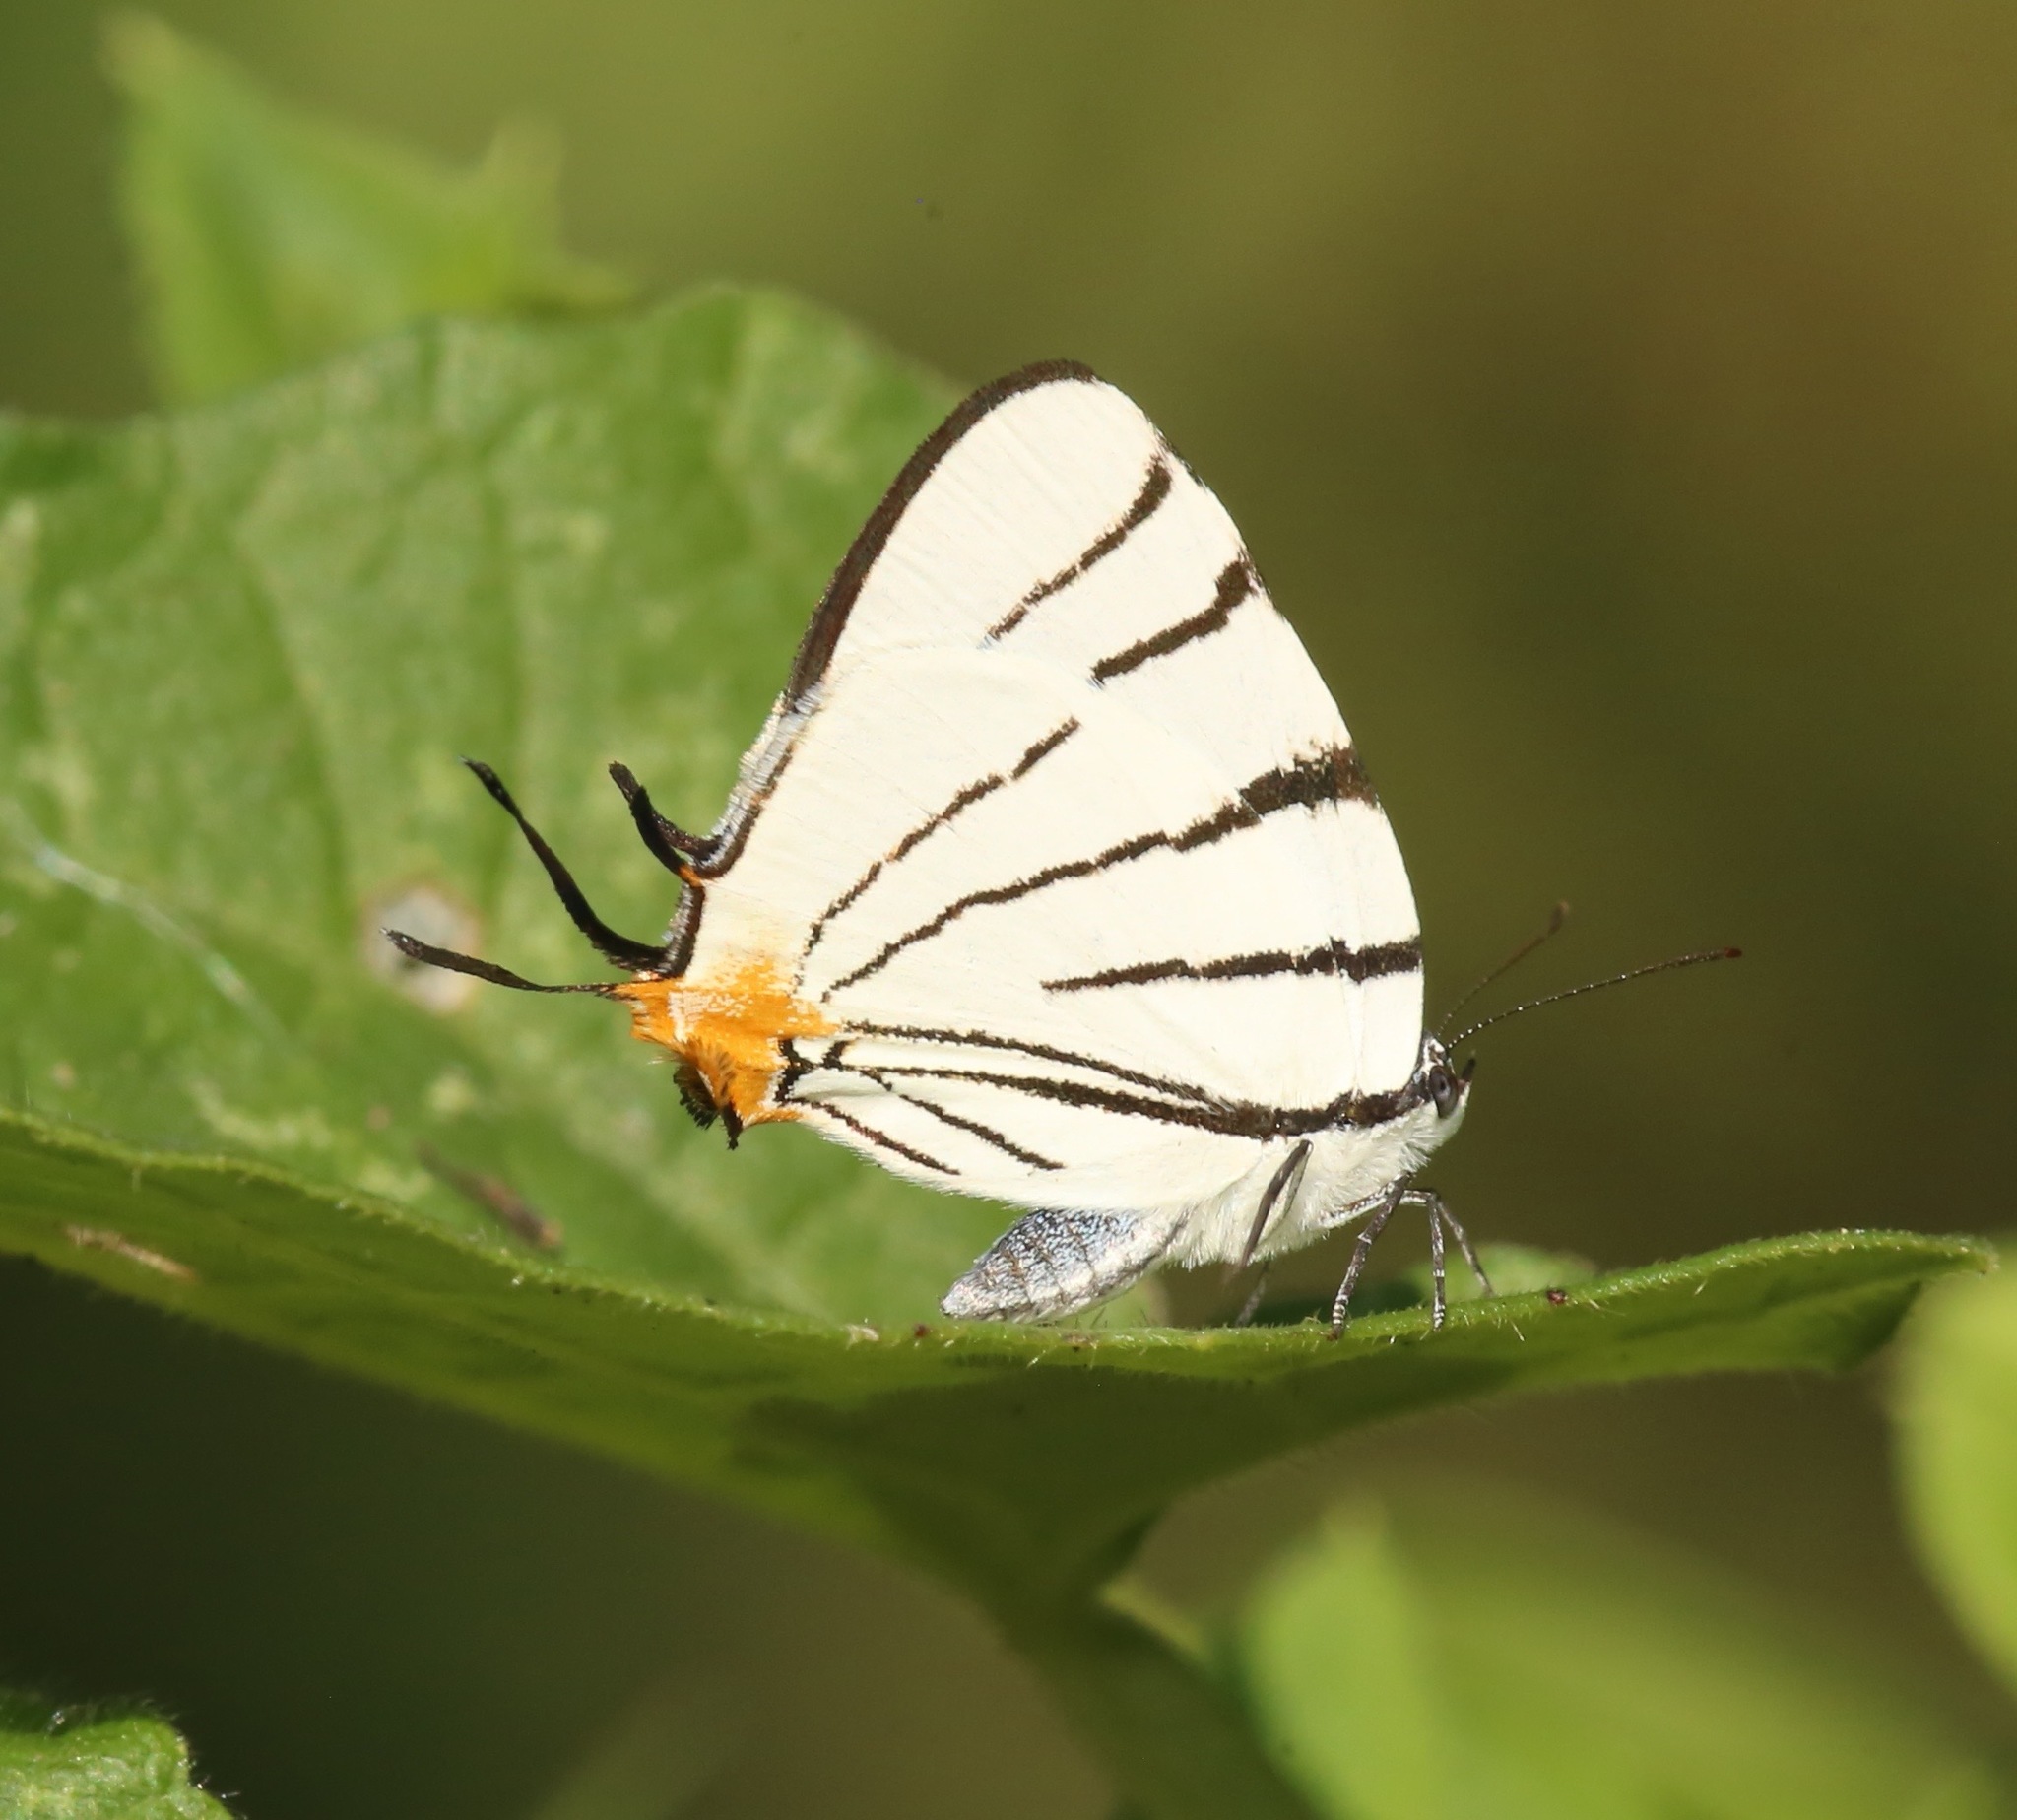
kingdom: Animalia
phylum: Arthropoda
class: Insecta
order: Lepidoptera
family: Lycaenidae
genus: Arawacus
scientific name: Arawacus leucogyna
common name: Black-tipped stripe-streak
